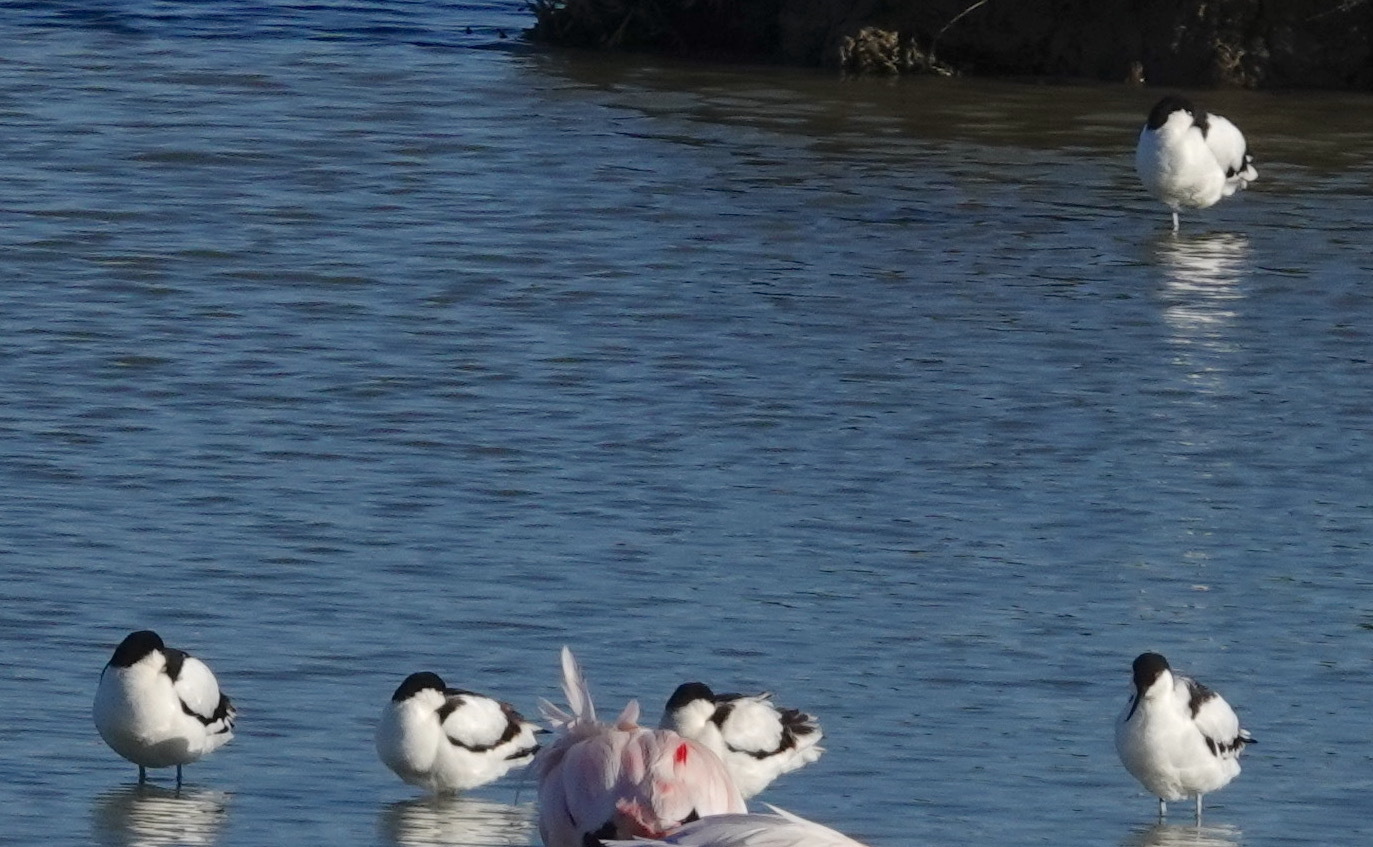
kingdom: Animalia
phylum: Chordata
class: Aves
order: Charadriiformes
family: Recurvirostridae
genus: Recurvirostra
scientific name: Recurvirostra avosetta
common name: Pied avocet
